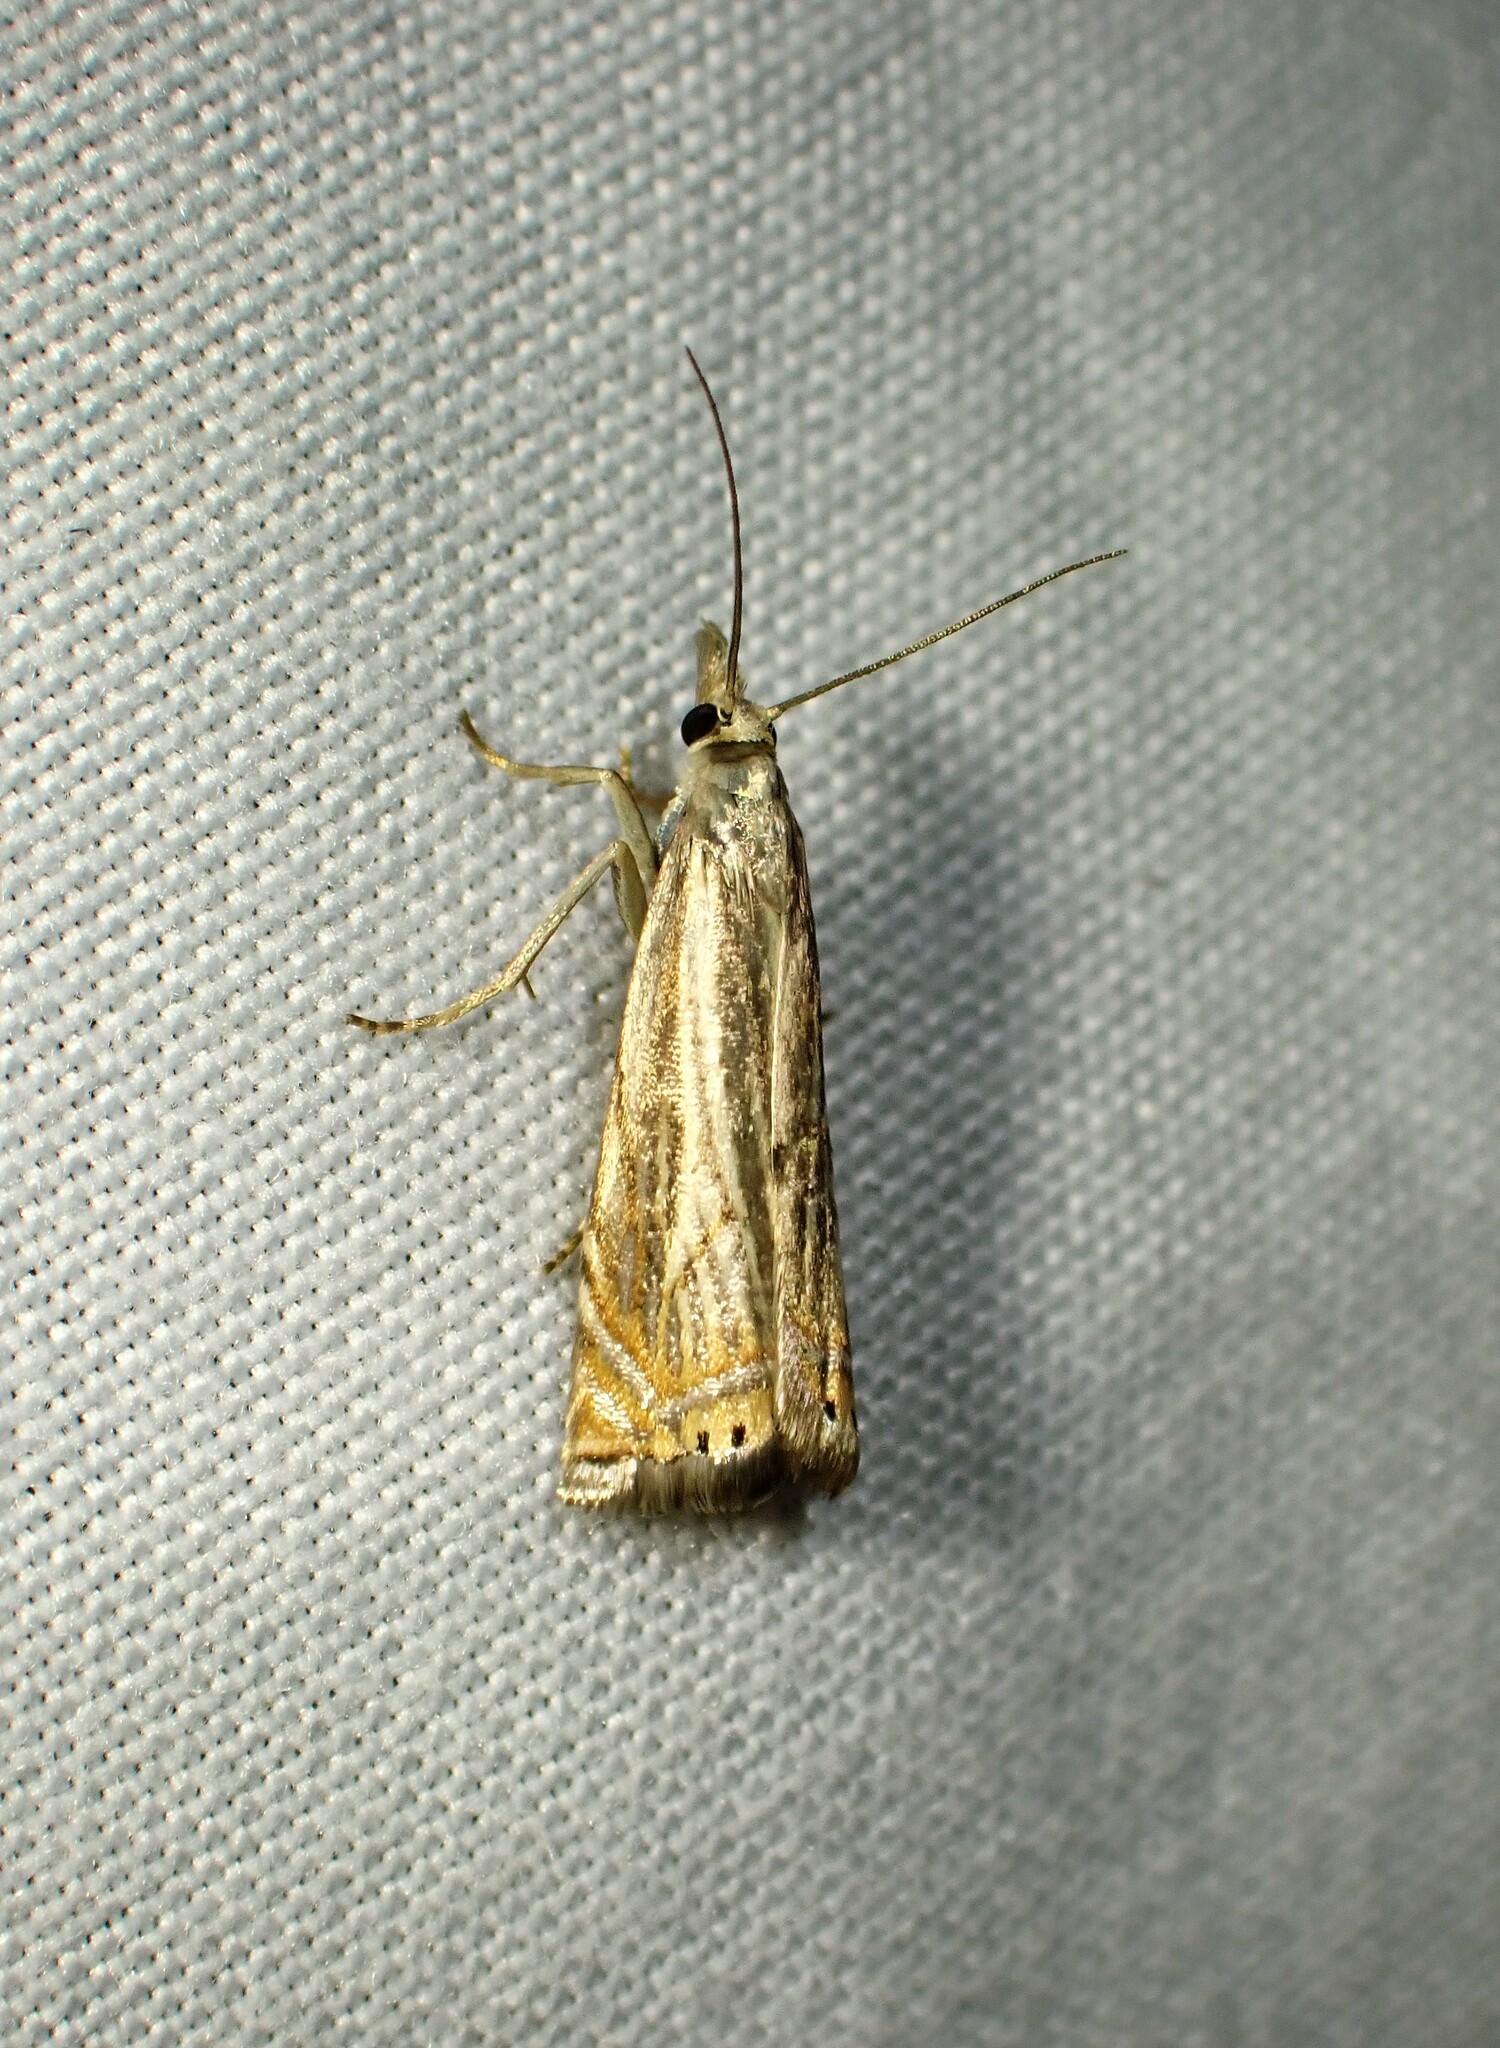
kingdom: Animalia
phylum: Arthropoda
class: Insecta
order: Lepidoptera
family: Crambidae
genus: Chrysoteuchia
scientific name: Chrysoteuchia topiarius
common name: Topiary grass-veneer
